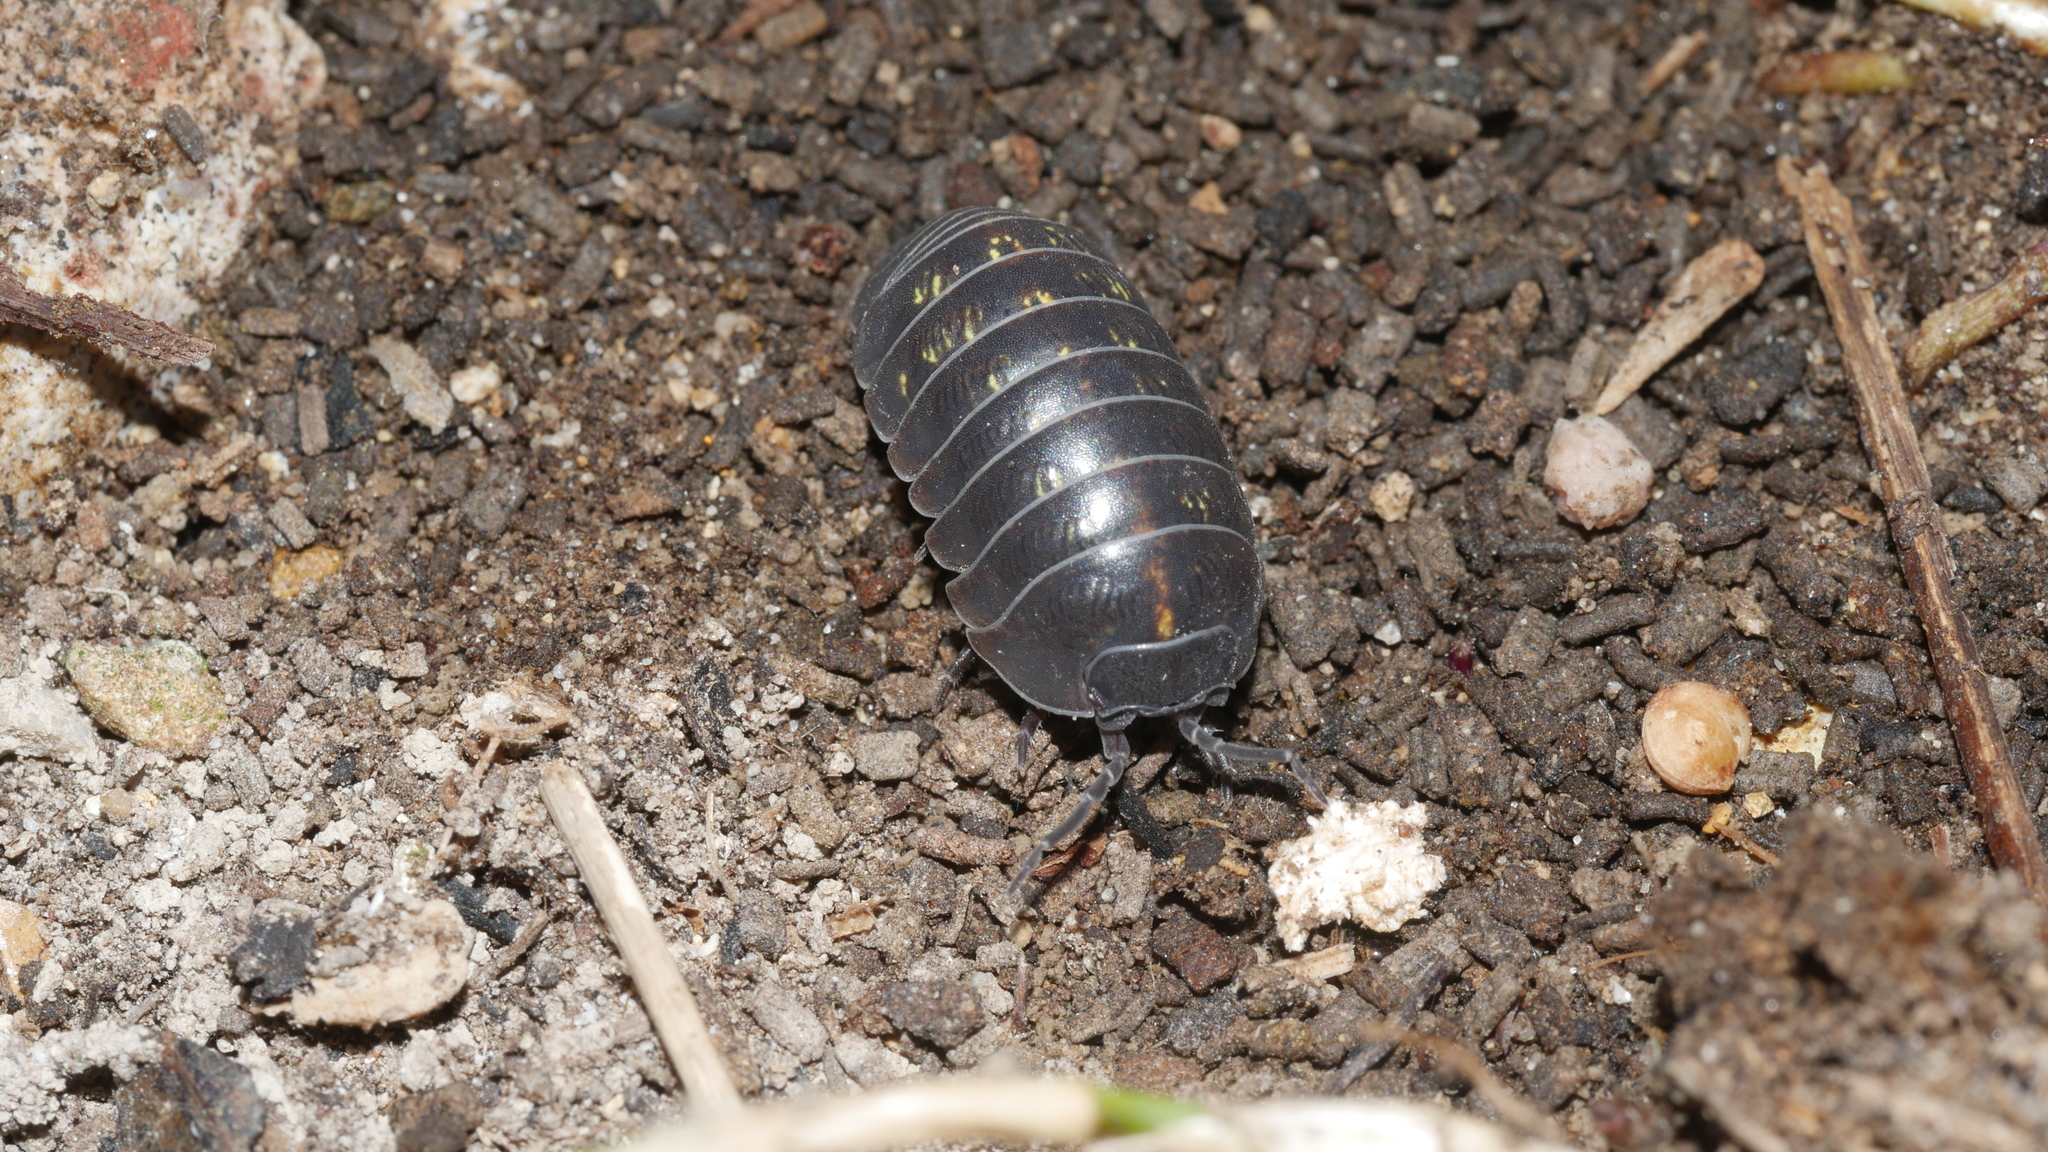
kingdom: Animalia
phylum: Arthropoda
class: Malacostraca
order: Isopoda
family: Armadillidiidae
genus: Armadillidium
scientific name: Armadillidium vulgare
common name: Common pill woodlouse
